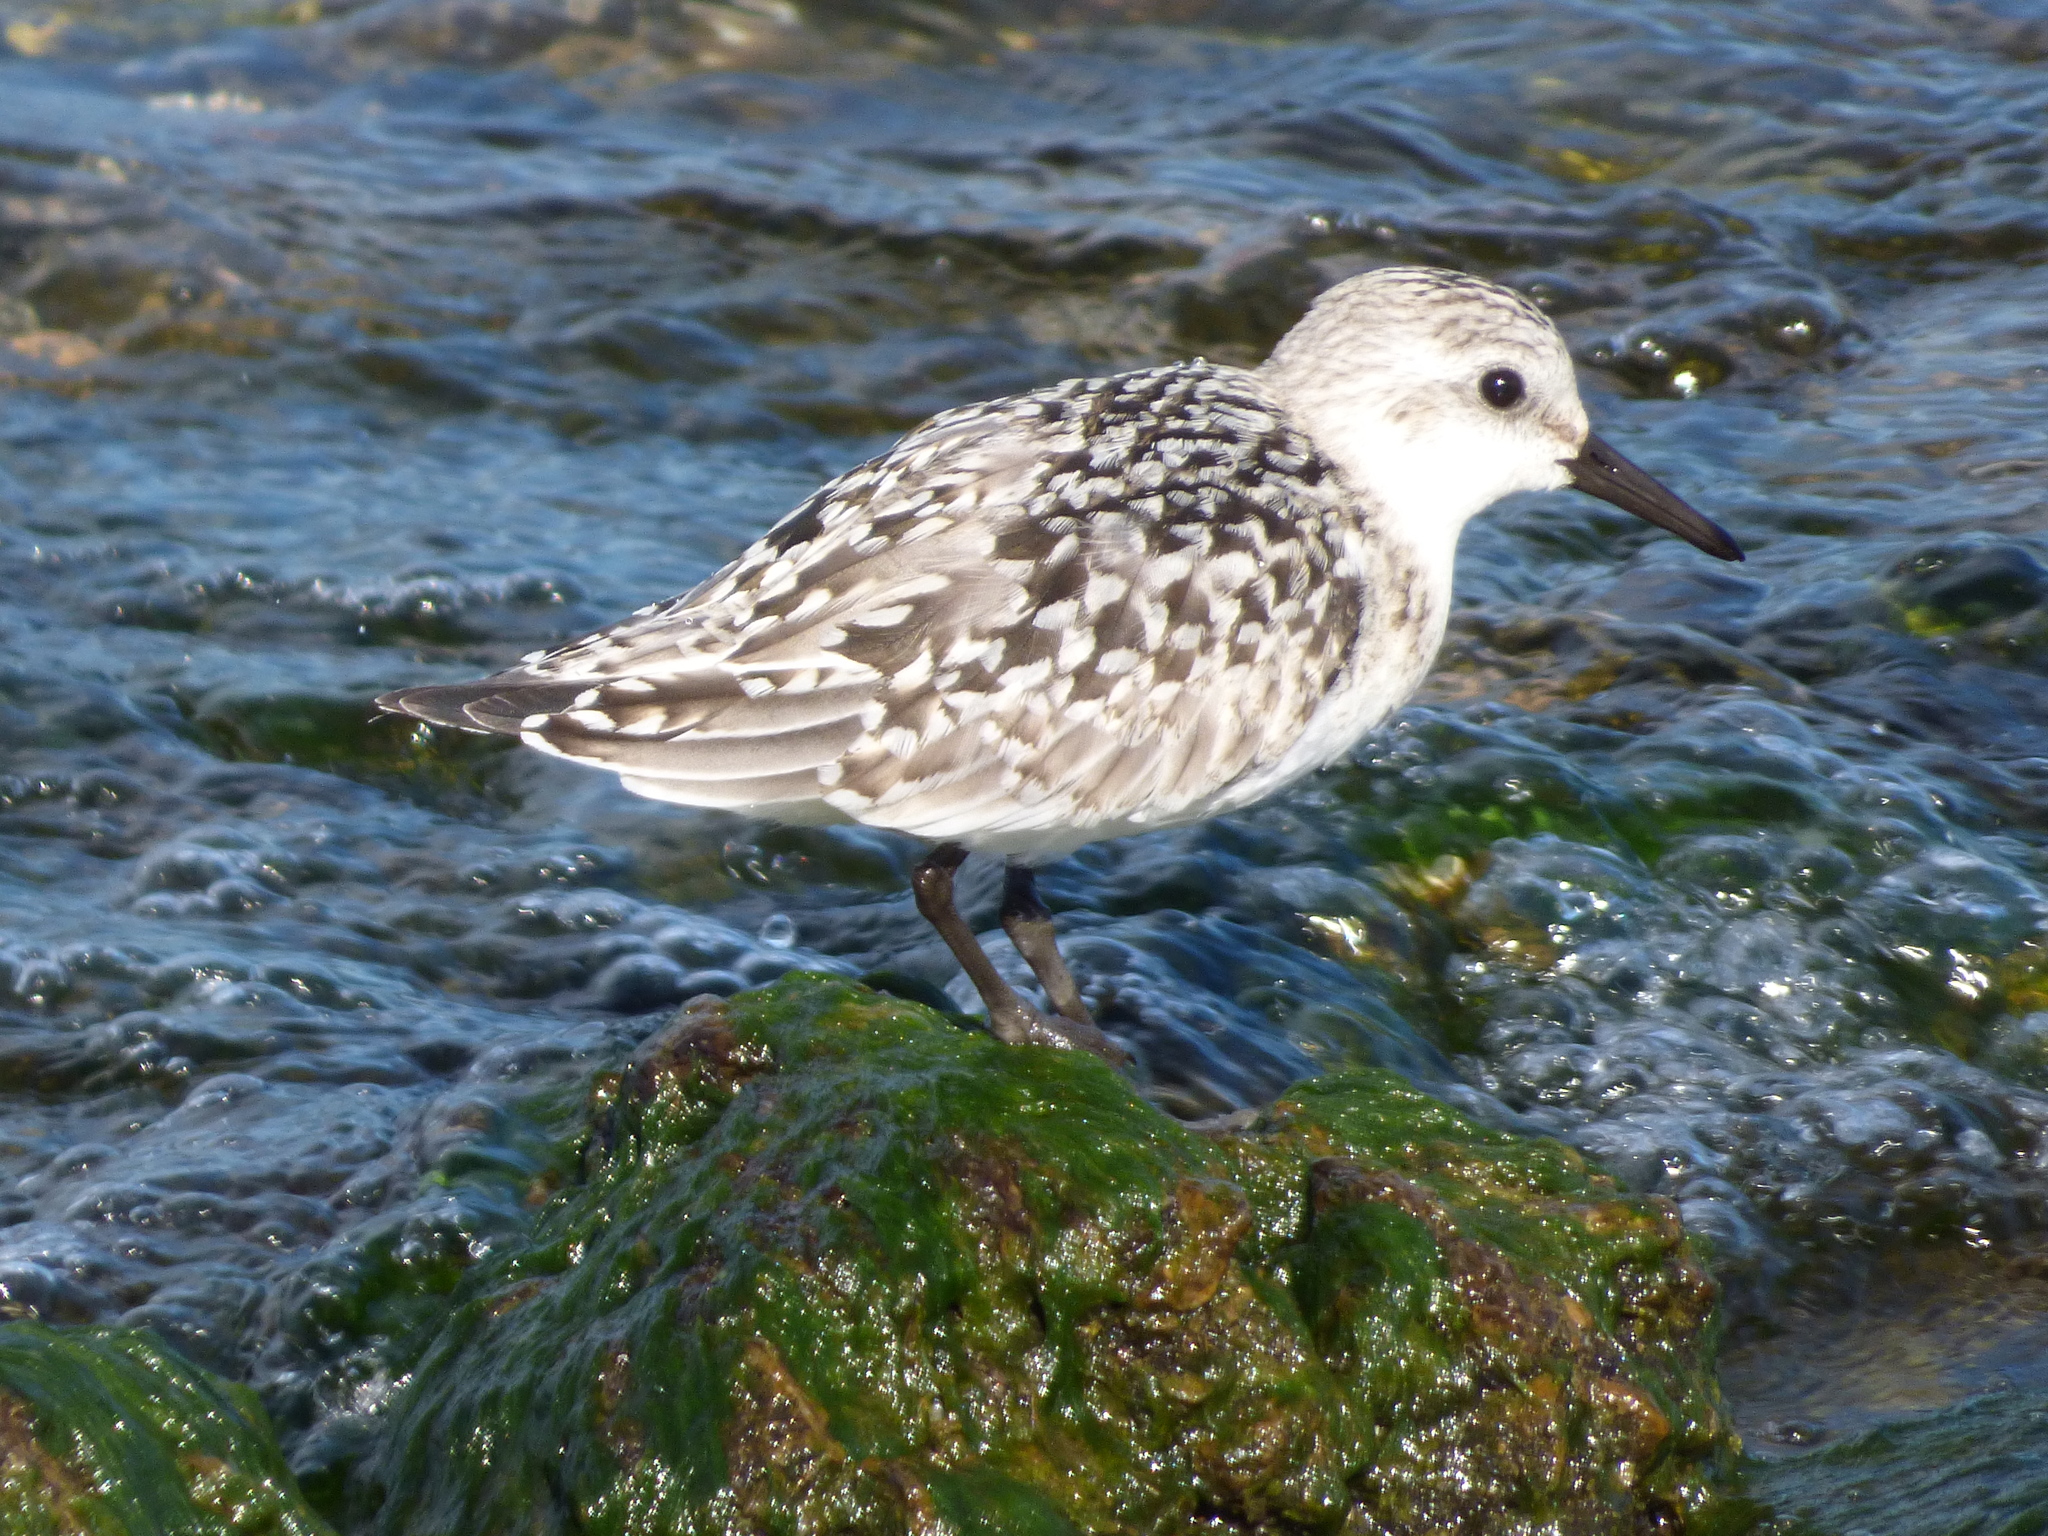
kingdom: Animalia
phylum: Chordata
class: Aves
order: Charadriiformes
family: Scolopacidae
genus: Calidris
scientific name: Calidris alba
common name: Sanderling
